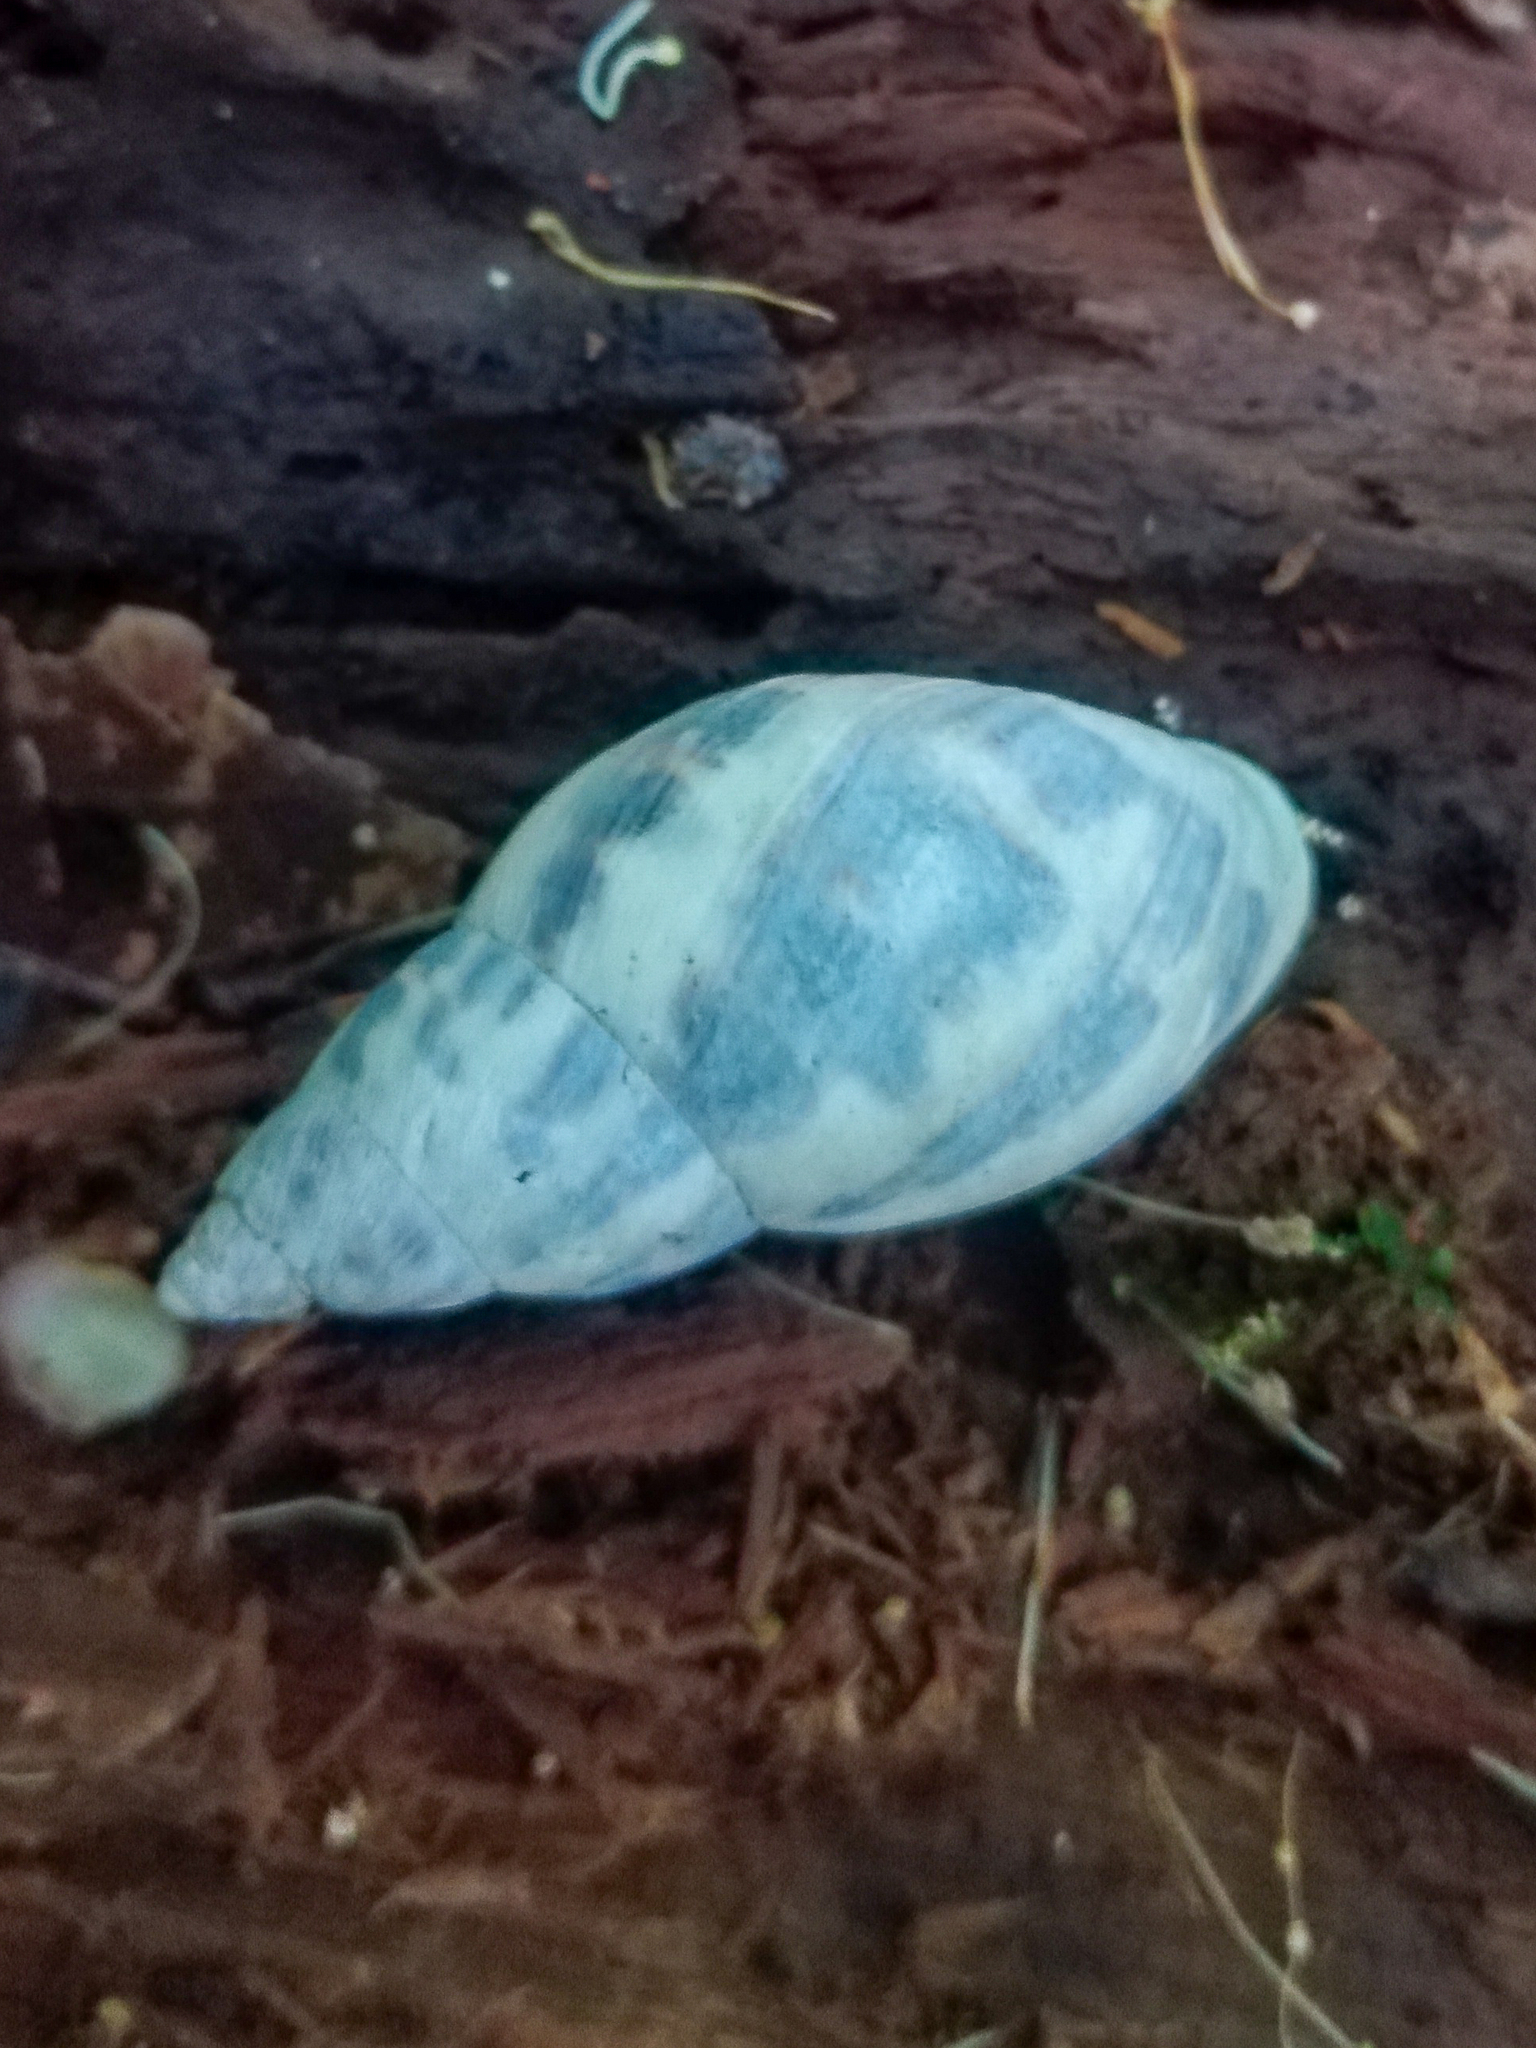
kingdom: Animalia
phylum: Mollusca
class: Gastropoda
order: Stylommatophora
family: Bulimulidae
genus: Drymaeus
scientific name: Drymaeus papyraceus
